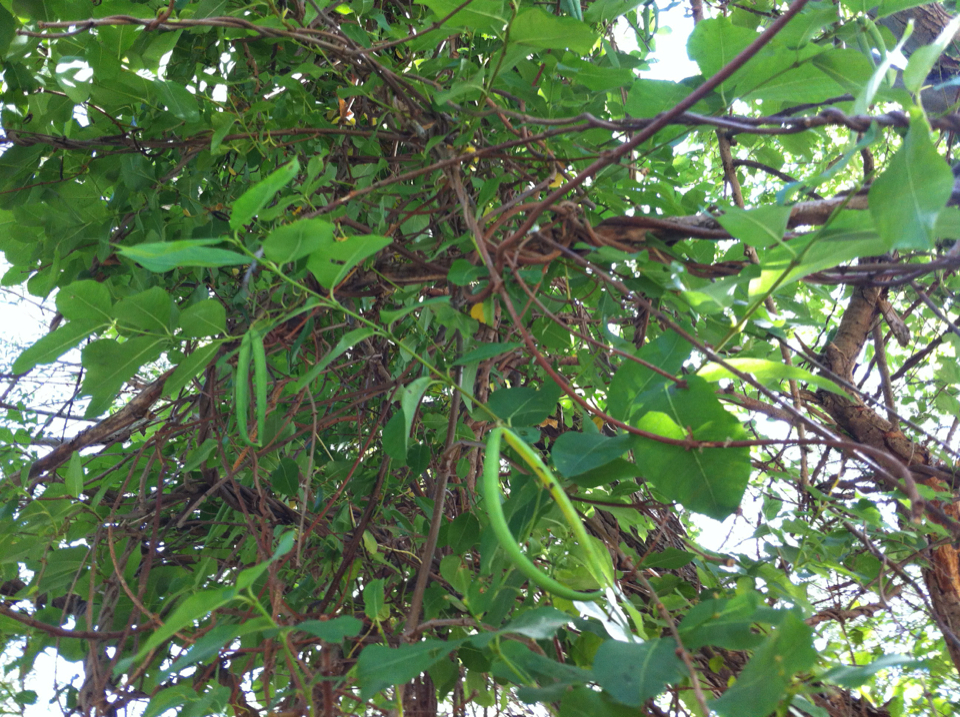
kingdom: Plantae
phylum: Tracheophyta
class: Magnoliopsida
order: Gentianales
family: Apocynaceae
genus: Periploca
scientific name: Periploca graeca
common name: Silkvine
